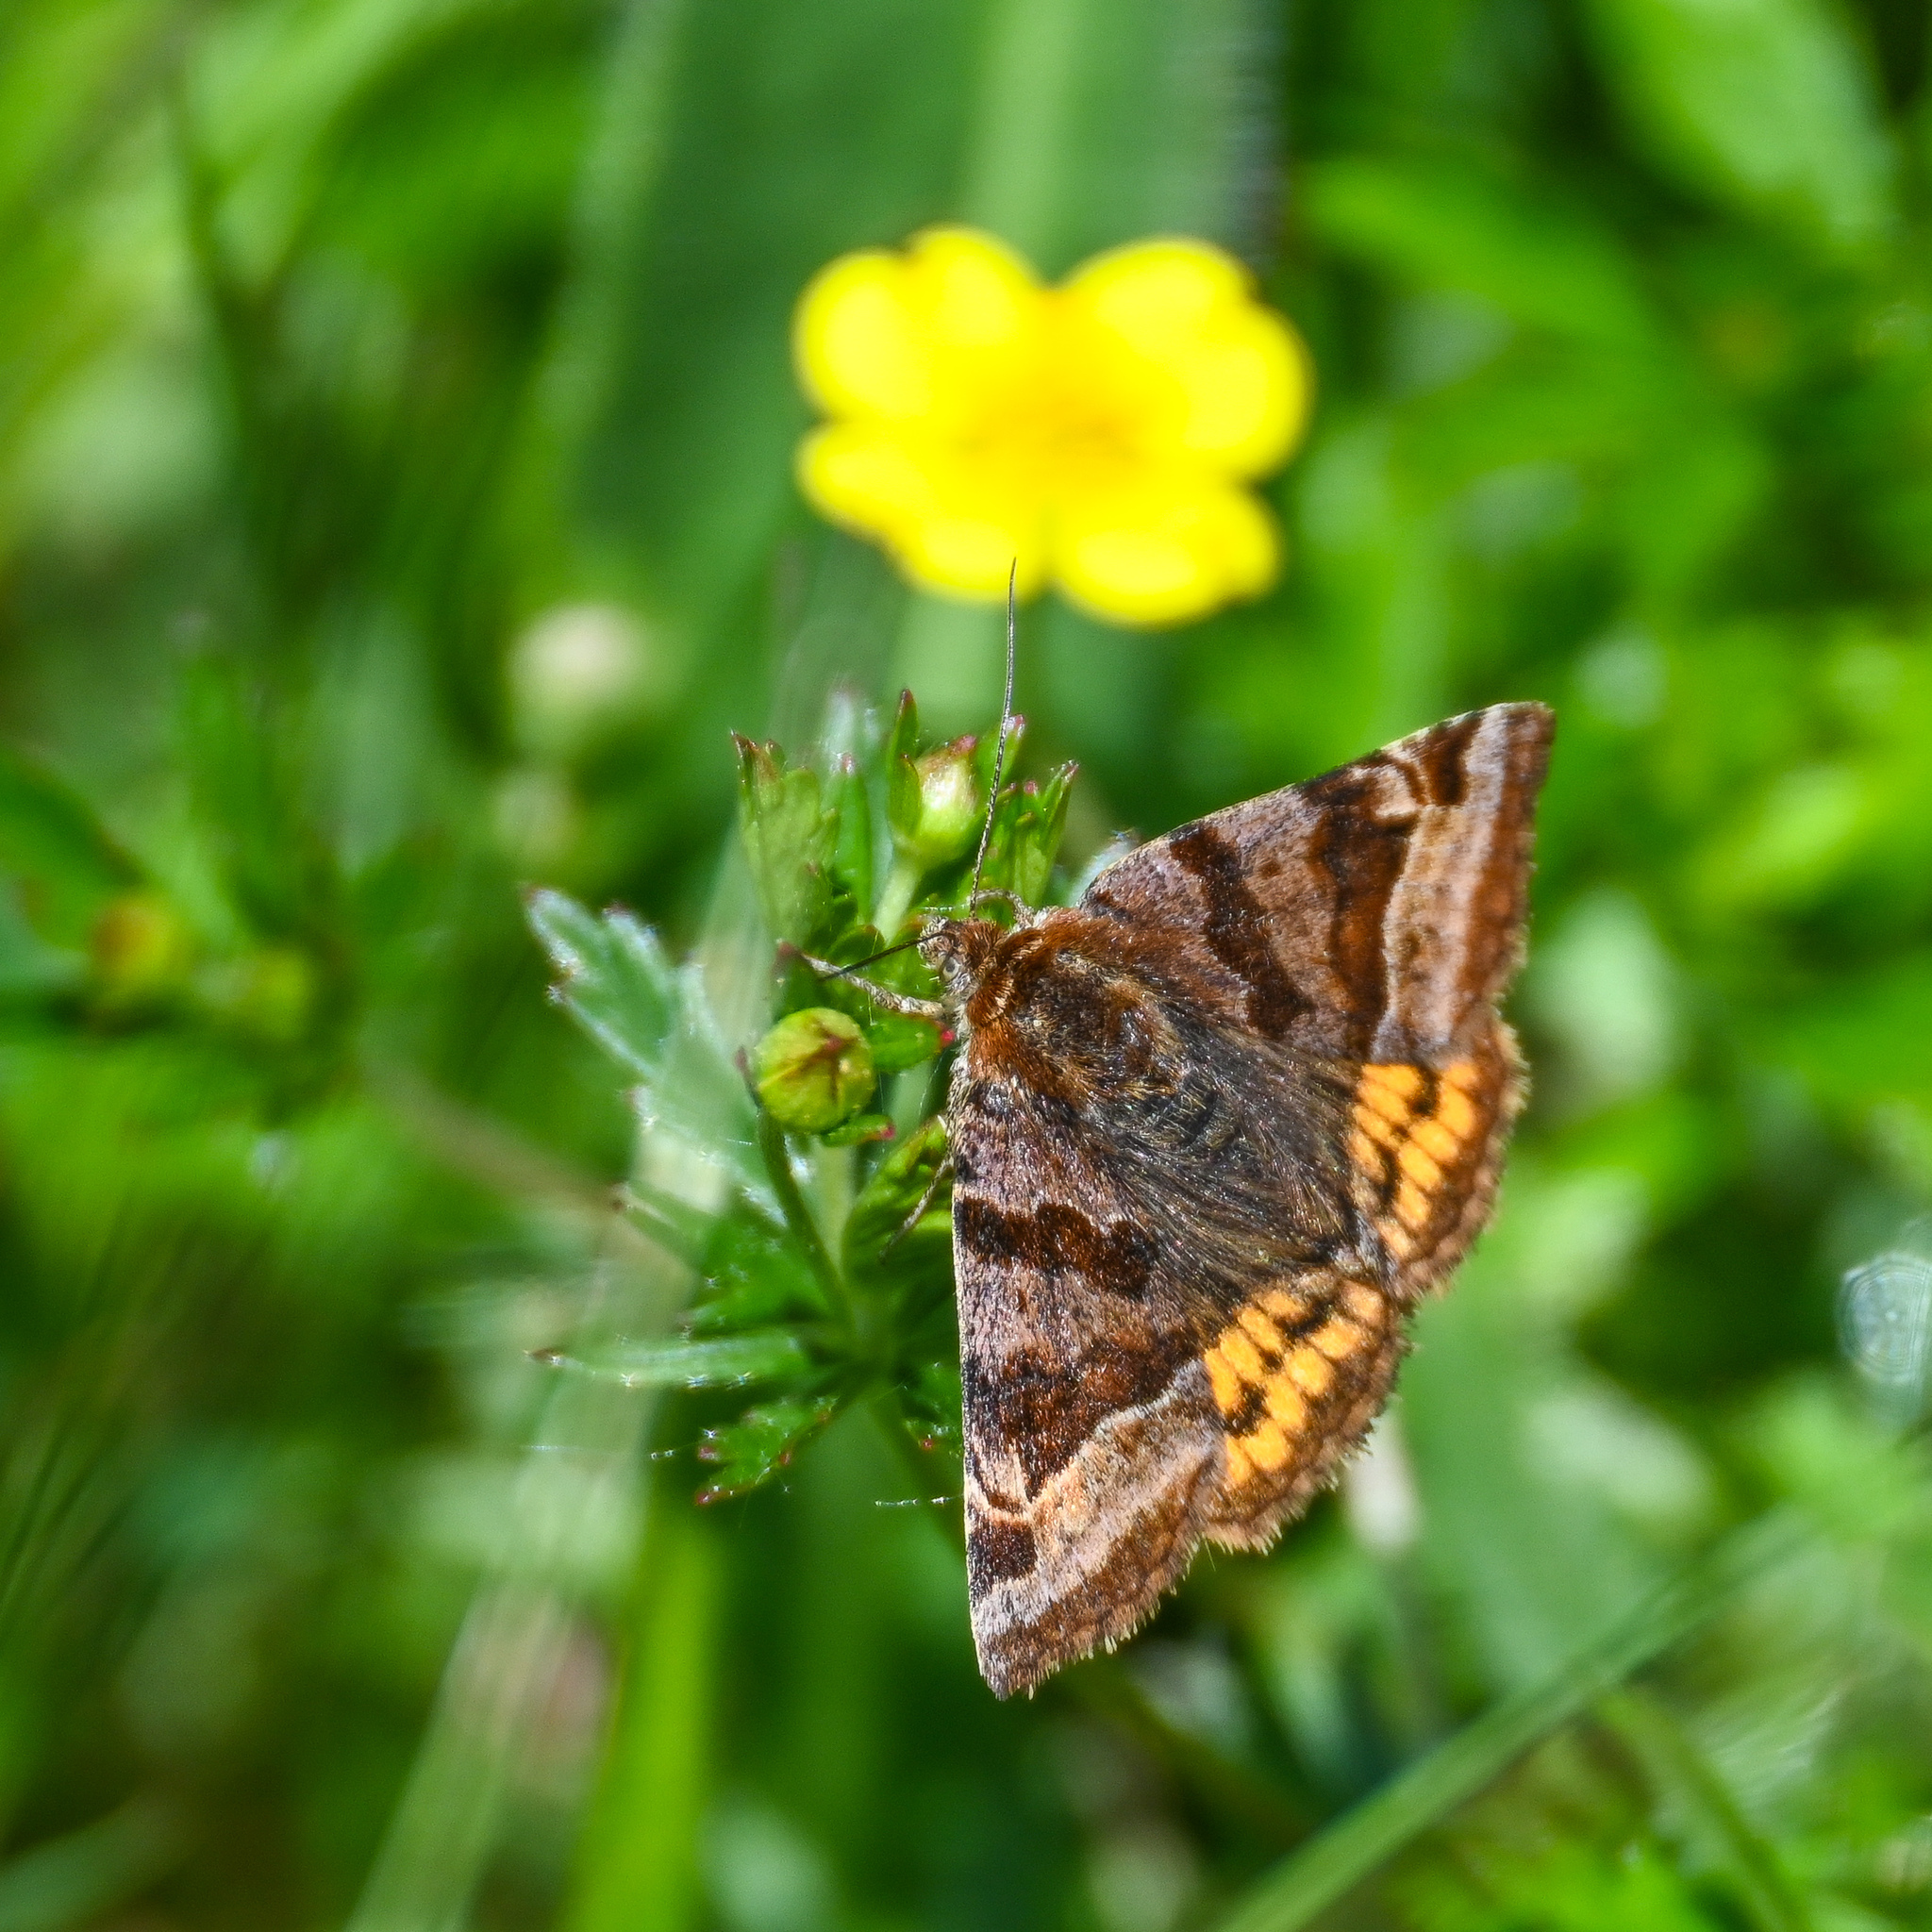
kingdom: Animalia
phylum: Arthropoda
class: Insecta
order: Lepidoptera
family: Erebidae
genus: Euclidia
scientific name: Euclidia glyphica
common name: Burnet companion
